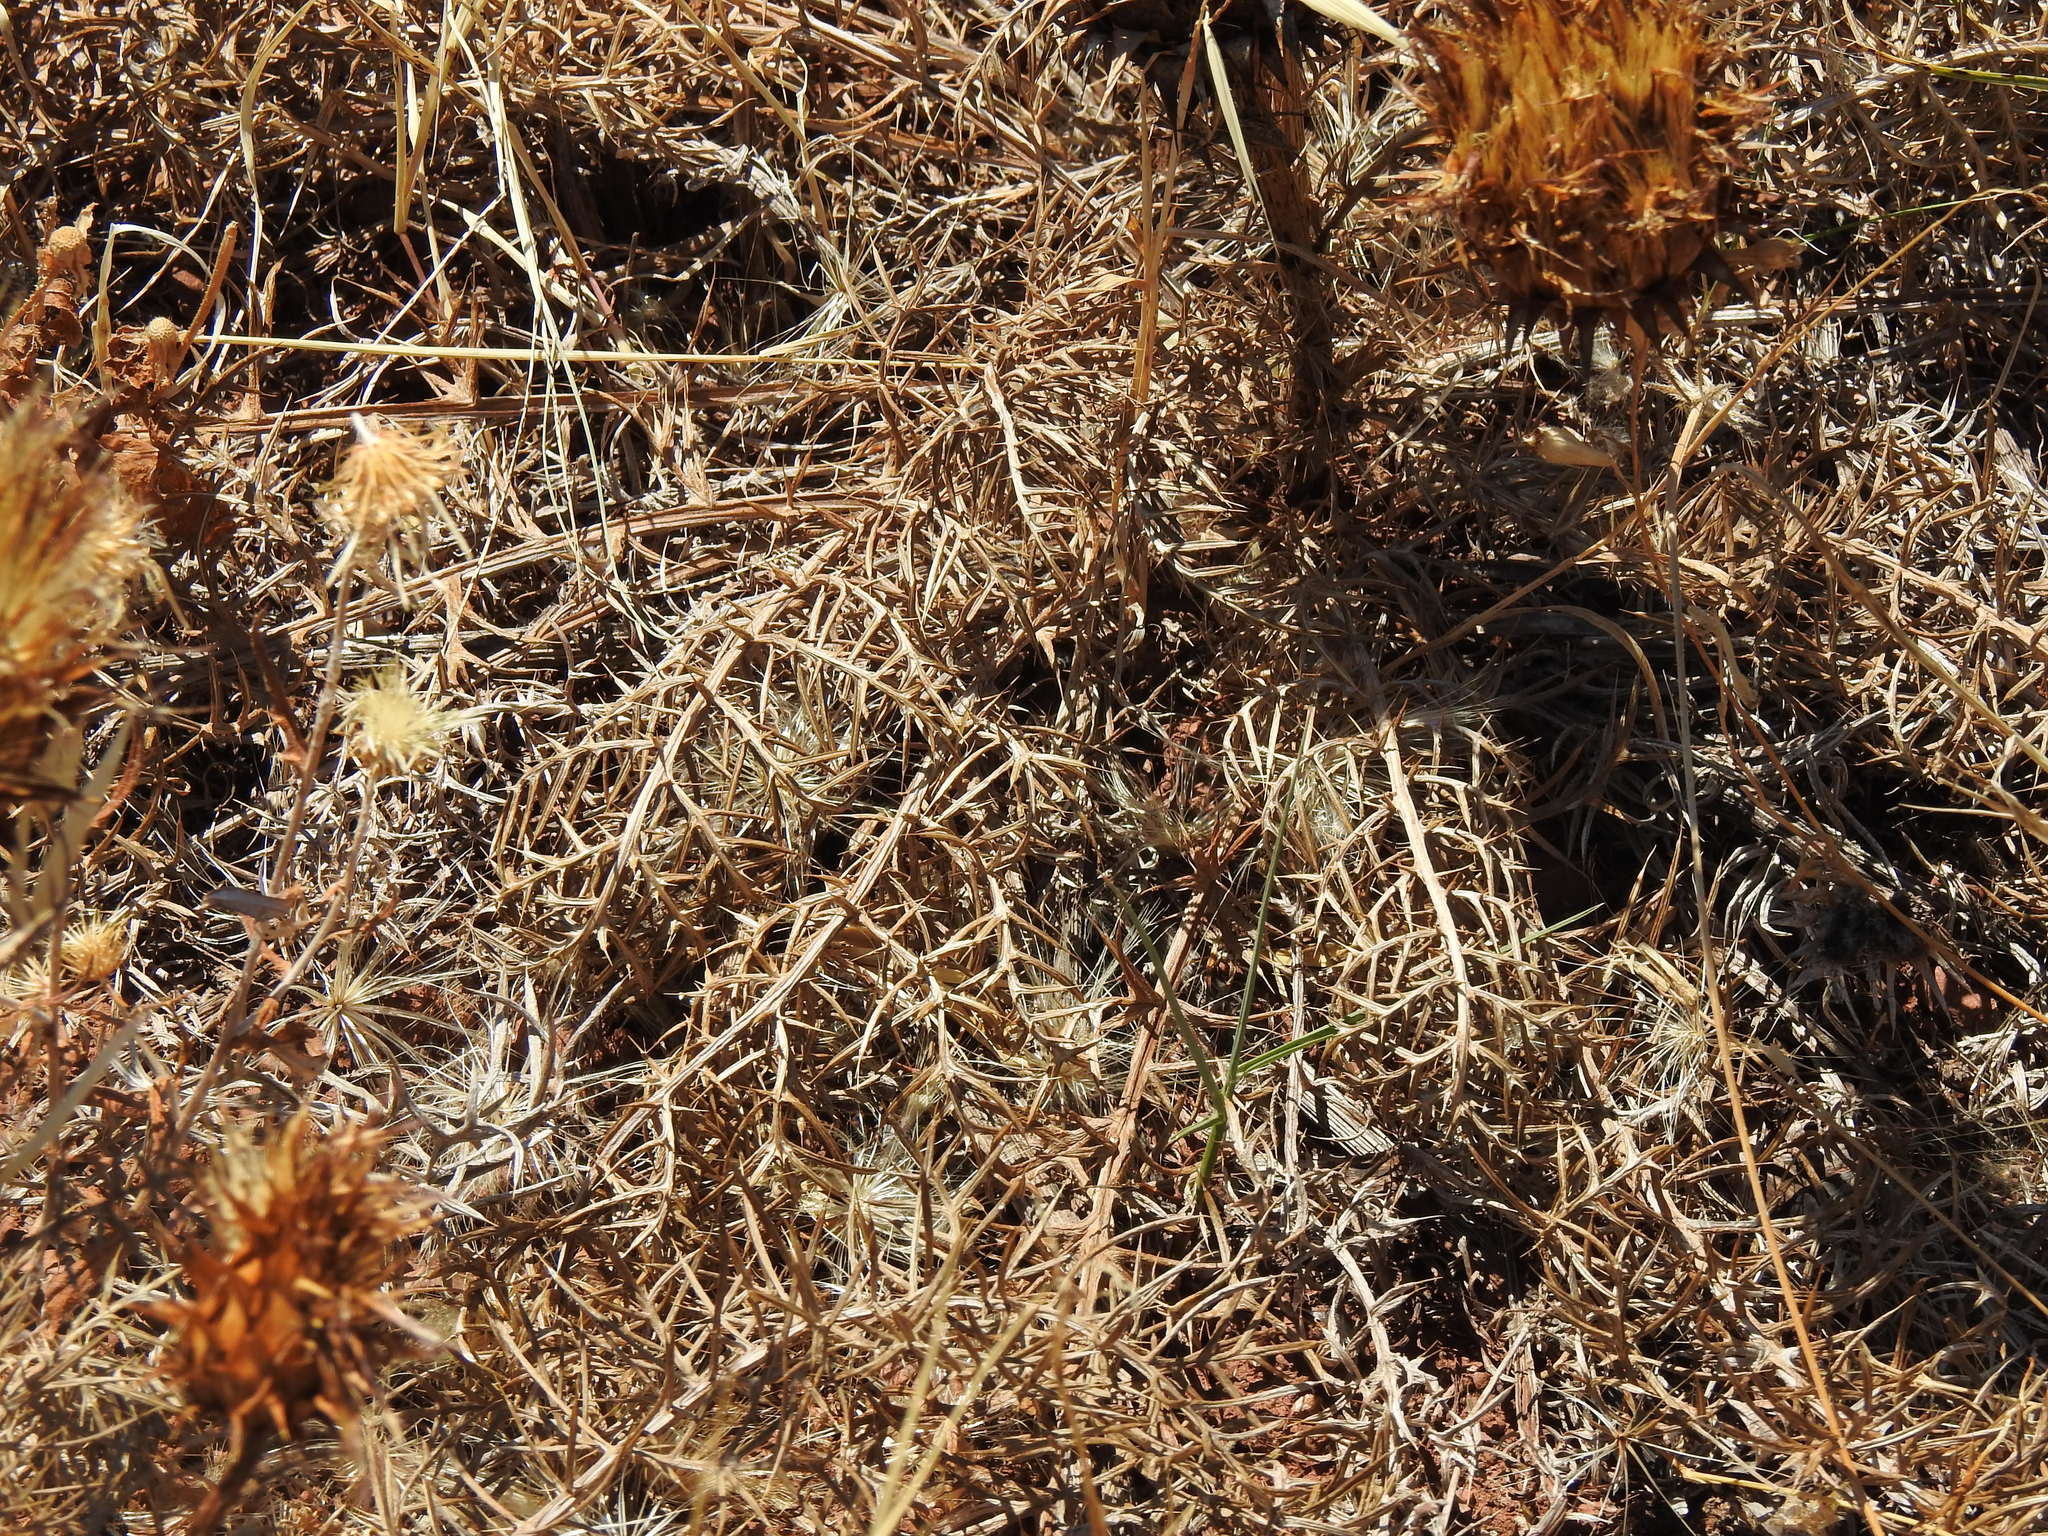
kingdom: Plantae
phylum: Tracheophyta
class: Magnoliopsida
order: Asterales
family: Asteraceae
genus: Cynara
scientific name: Cynara humilis
